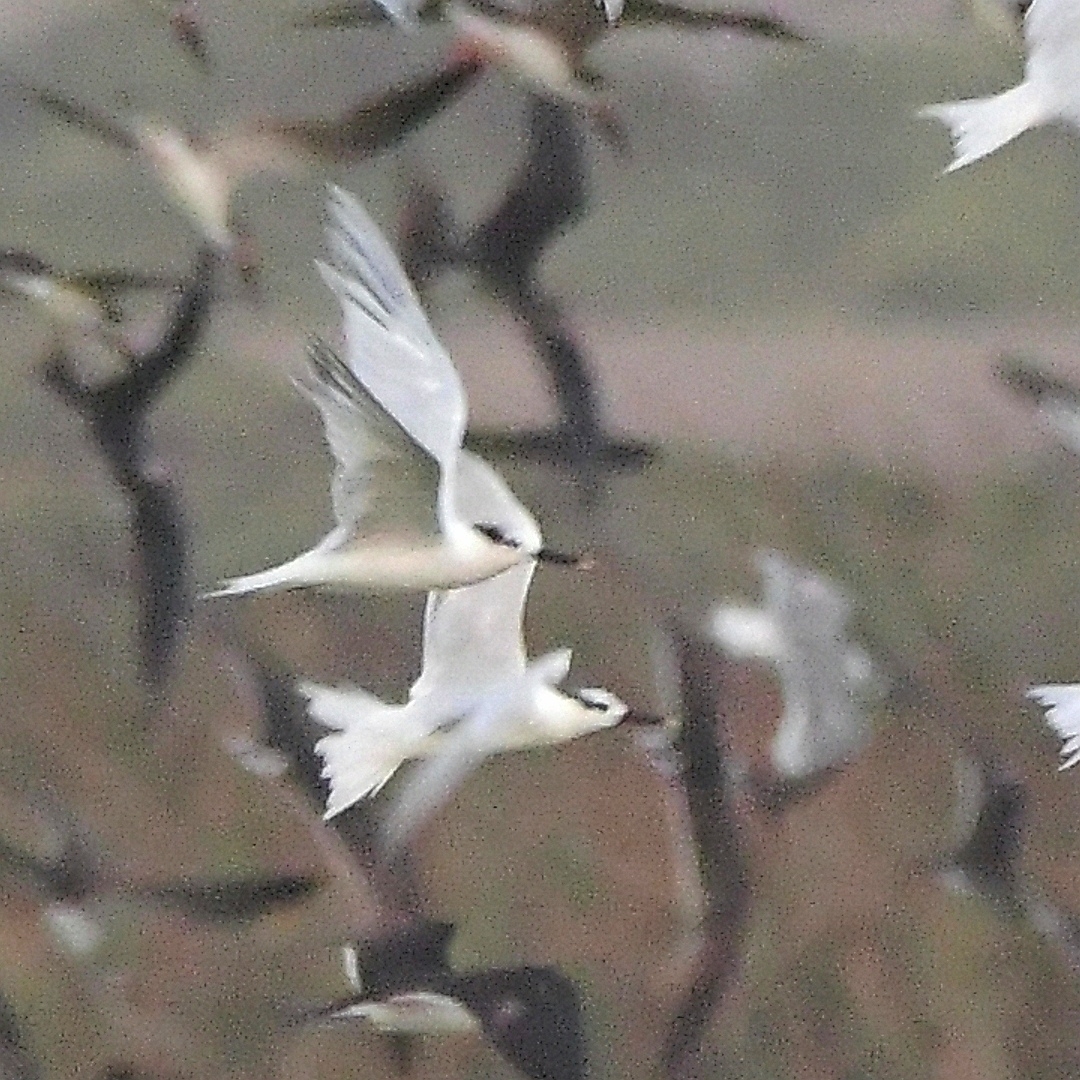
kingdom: Animalia
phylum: Chordata
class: Aves
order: Charadriiformes
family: Laridae
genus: Thalasseus
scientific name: Thalasseus sandvicensis
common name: Sandwich tern
